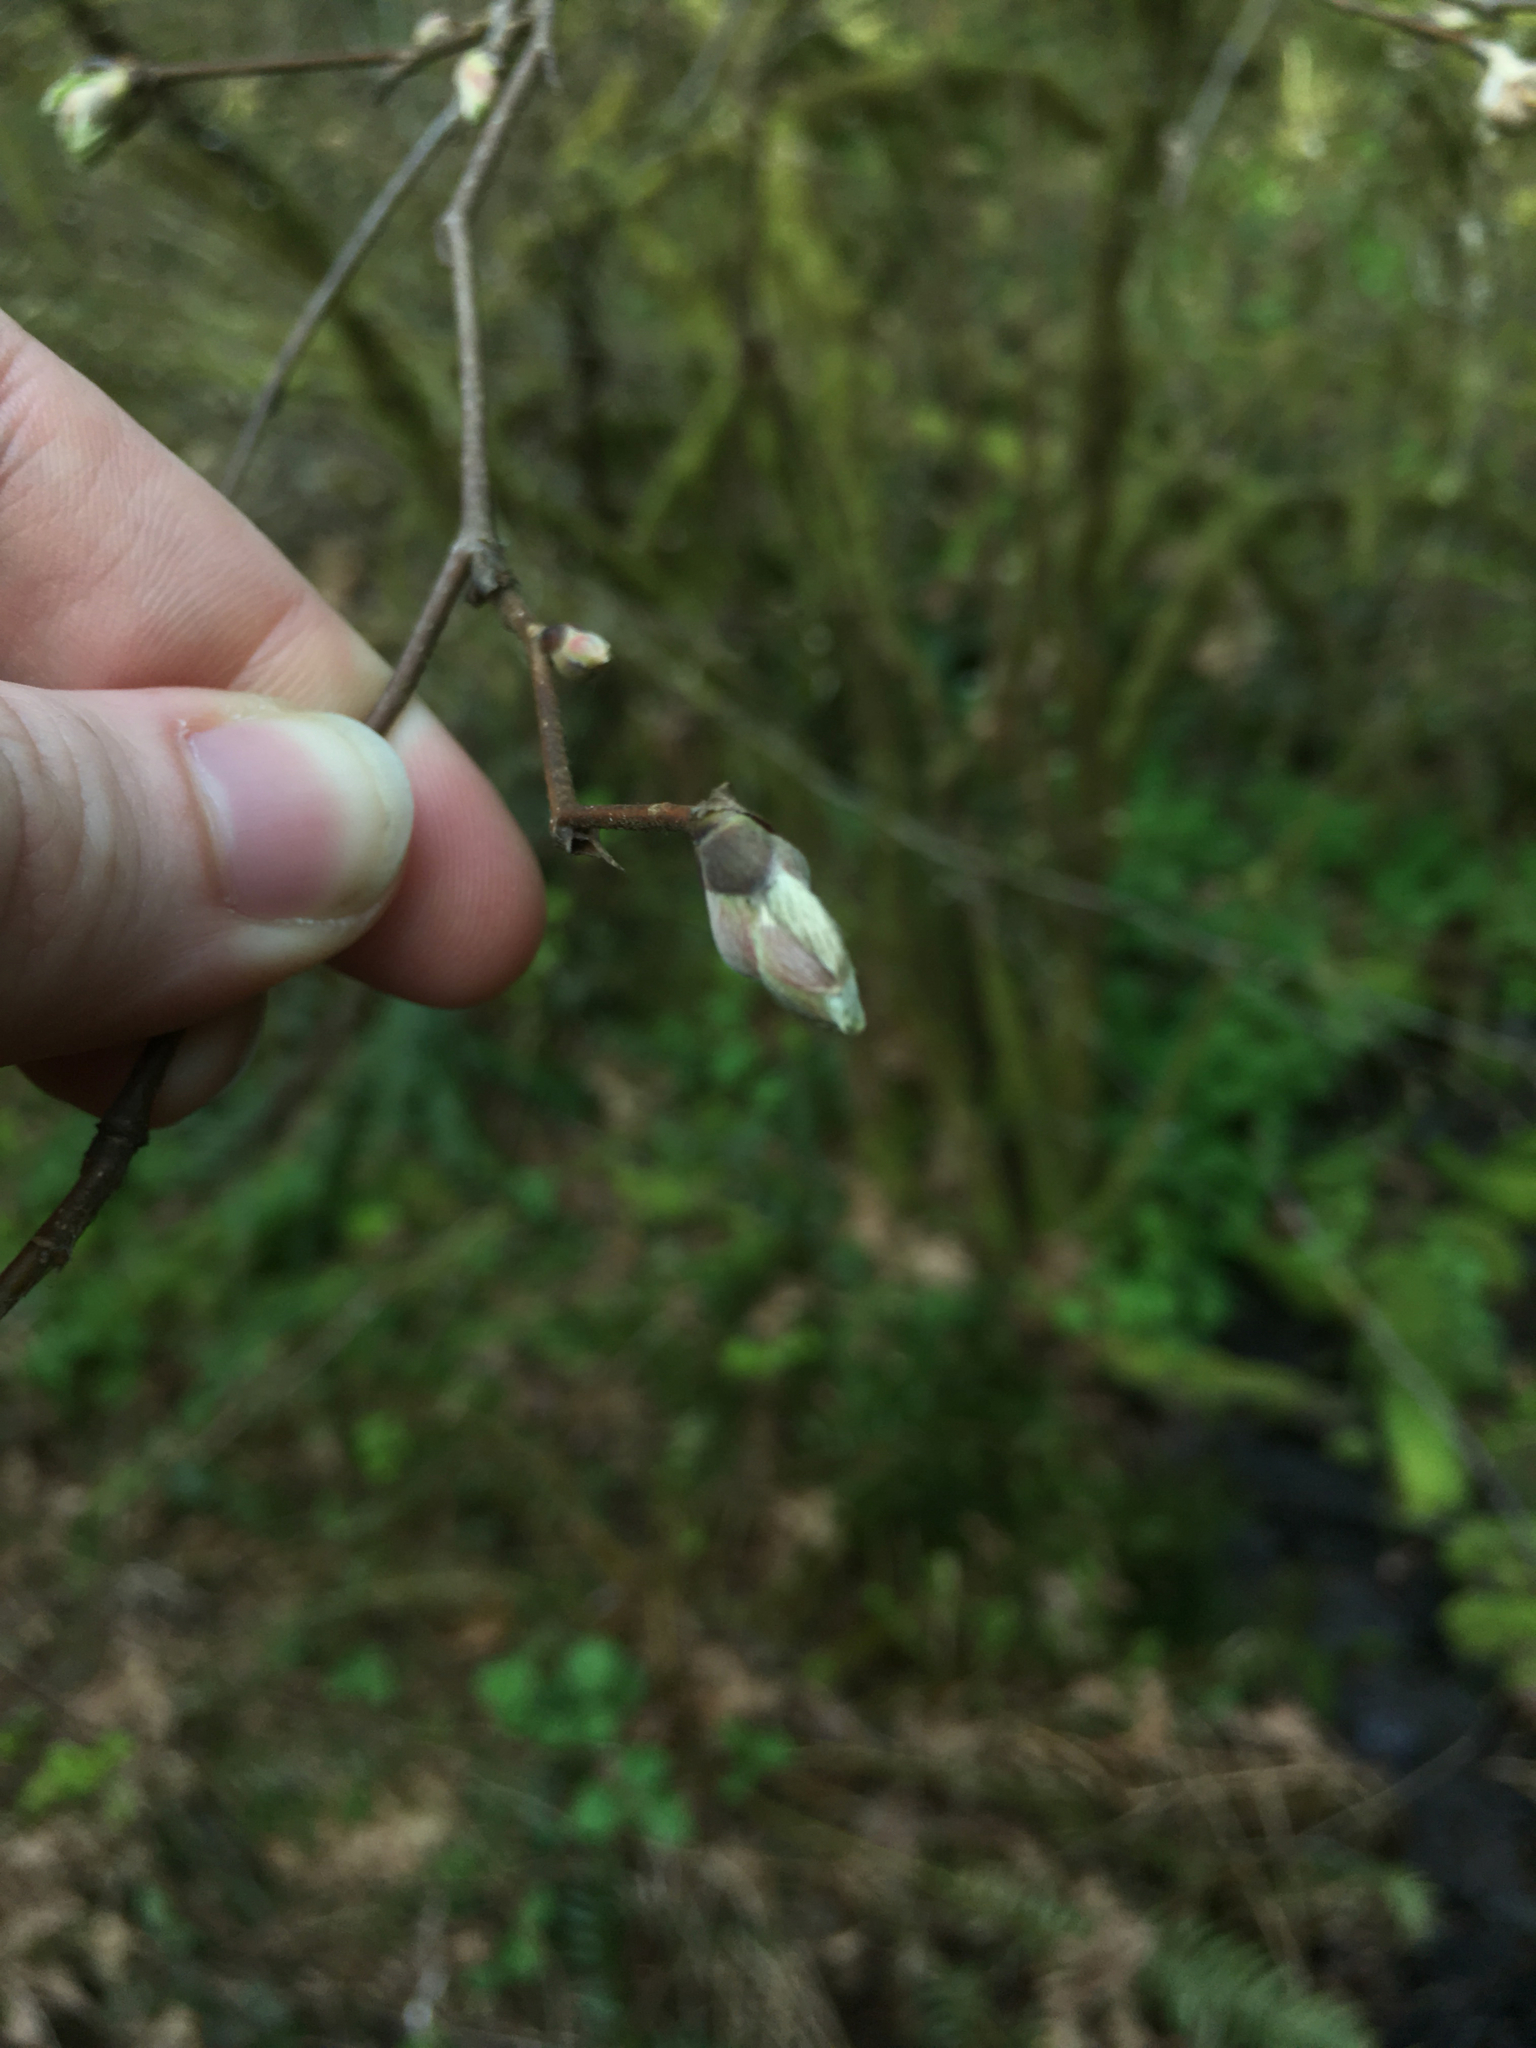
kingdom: Plantae
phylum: Tracheophyta
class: Magnoliopsida
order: Fagales
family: Betulaceae
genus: Corylus
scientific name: Corylus cornuta
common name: Beaked hazel
